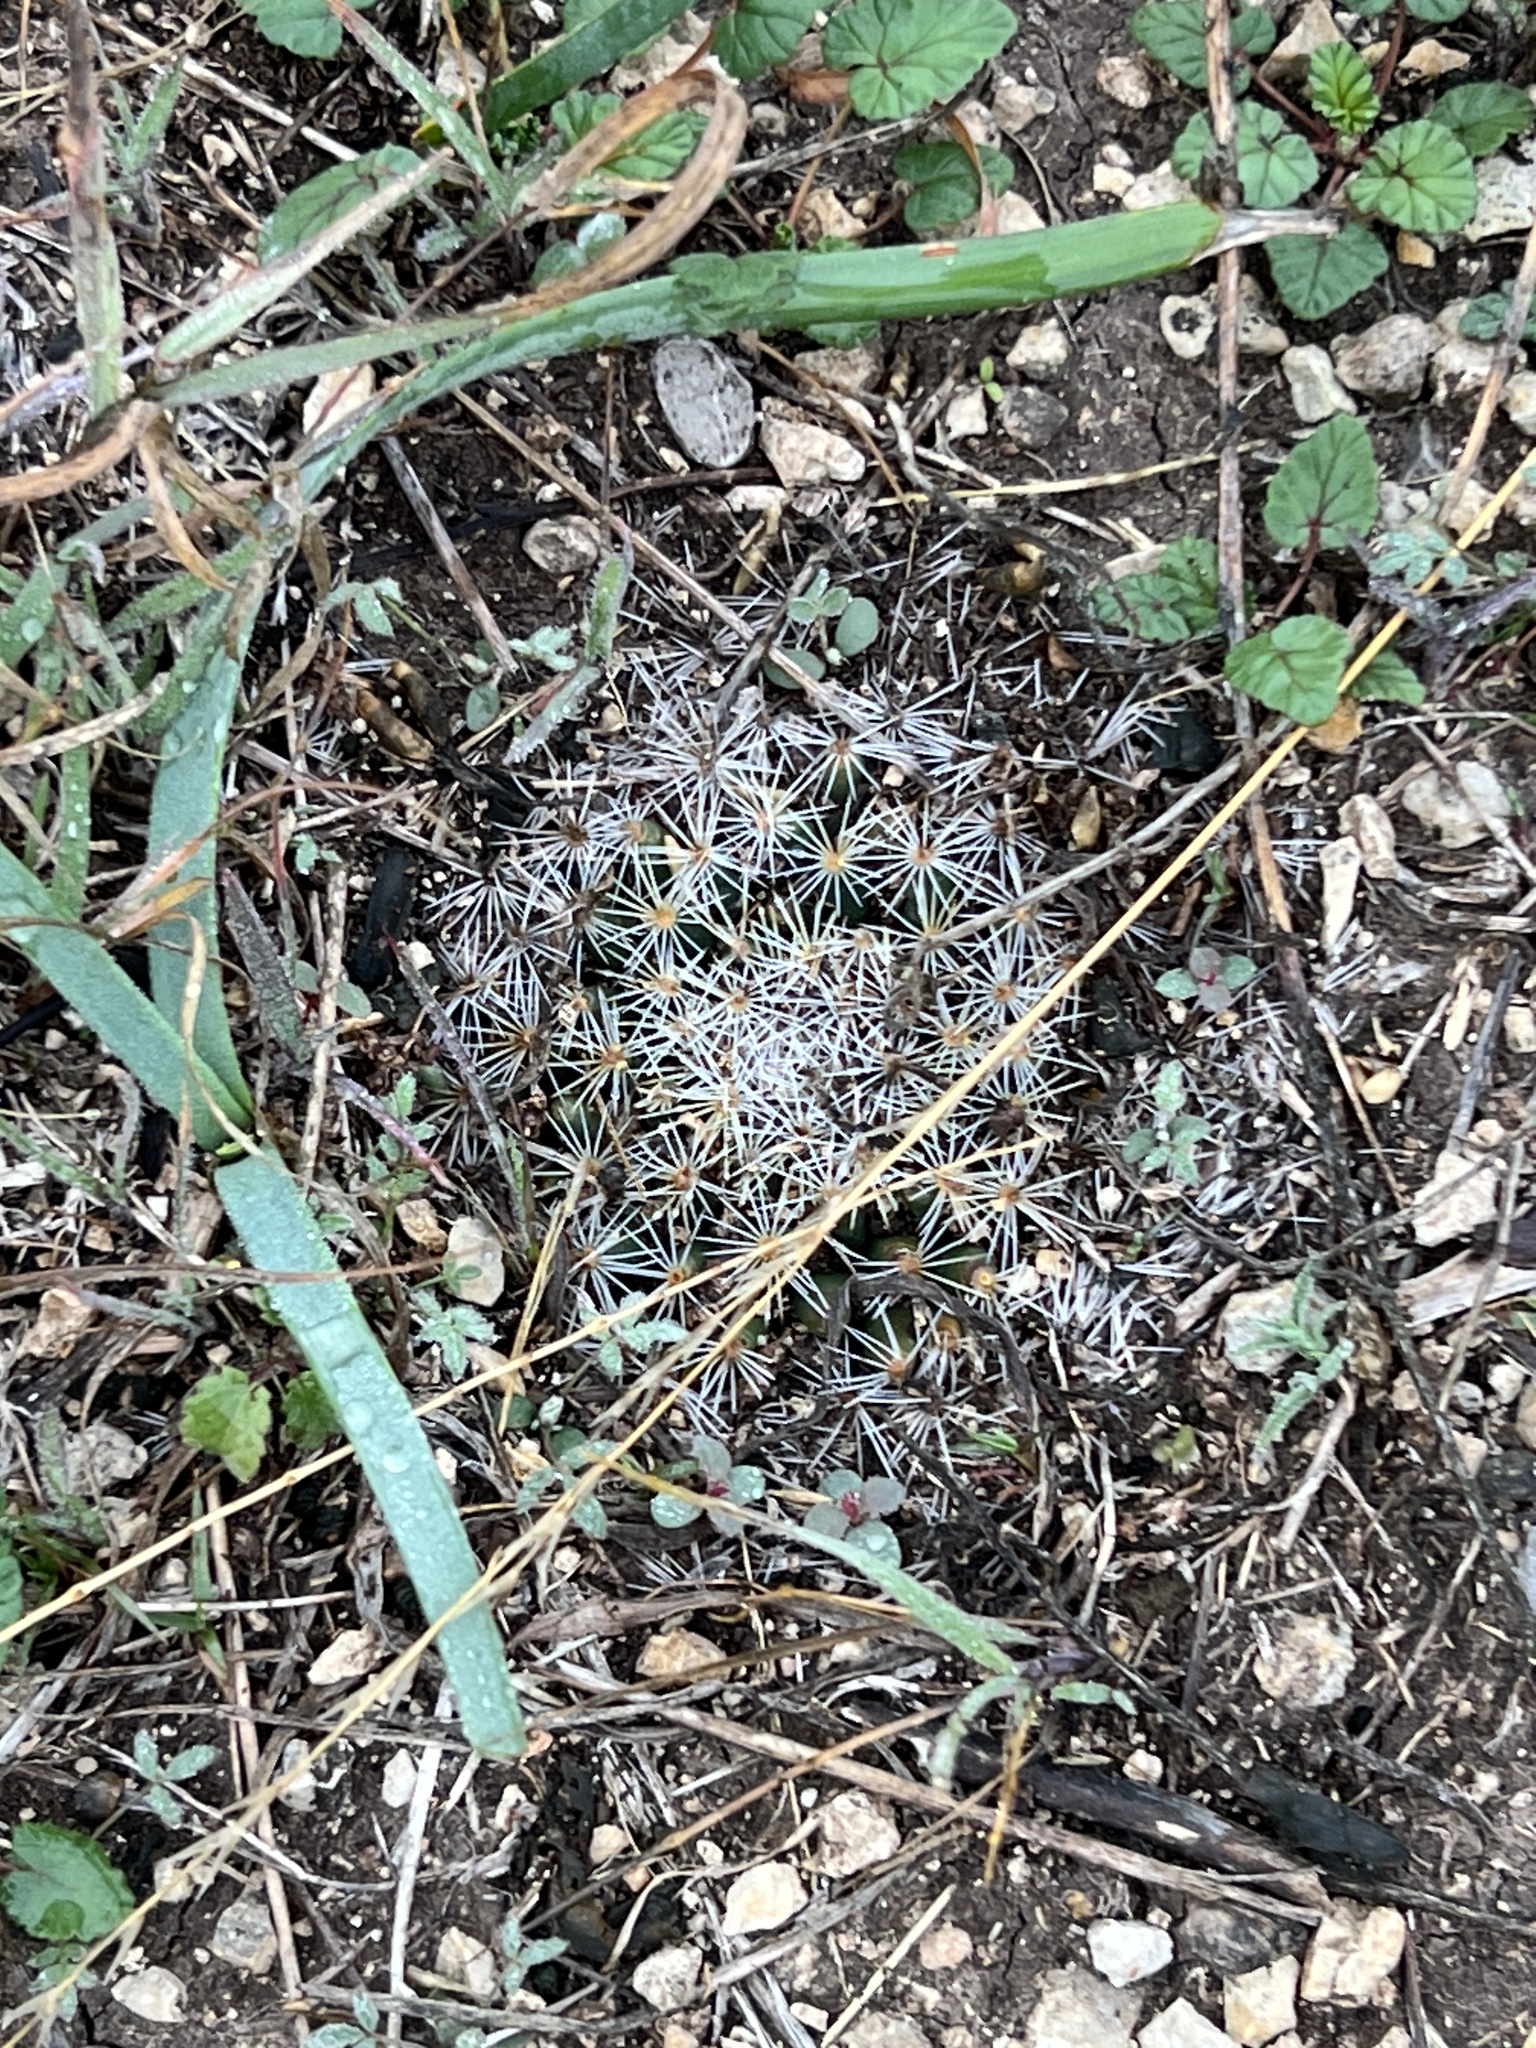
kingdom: Plantae
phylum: Tracheophyta
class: Magnoliopsida
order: Caryophyllales
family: Cactaceae
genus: Mammillaria
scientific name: Mammillaria heyderi
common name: Little nipple cactus
